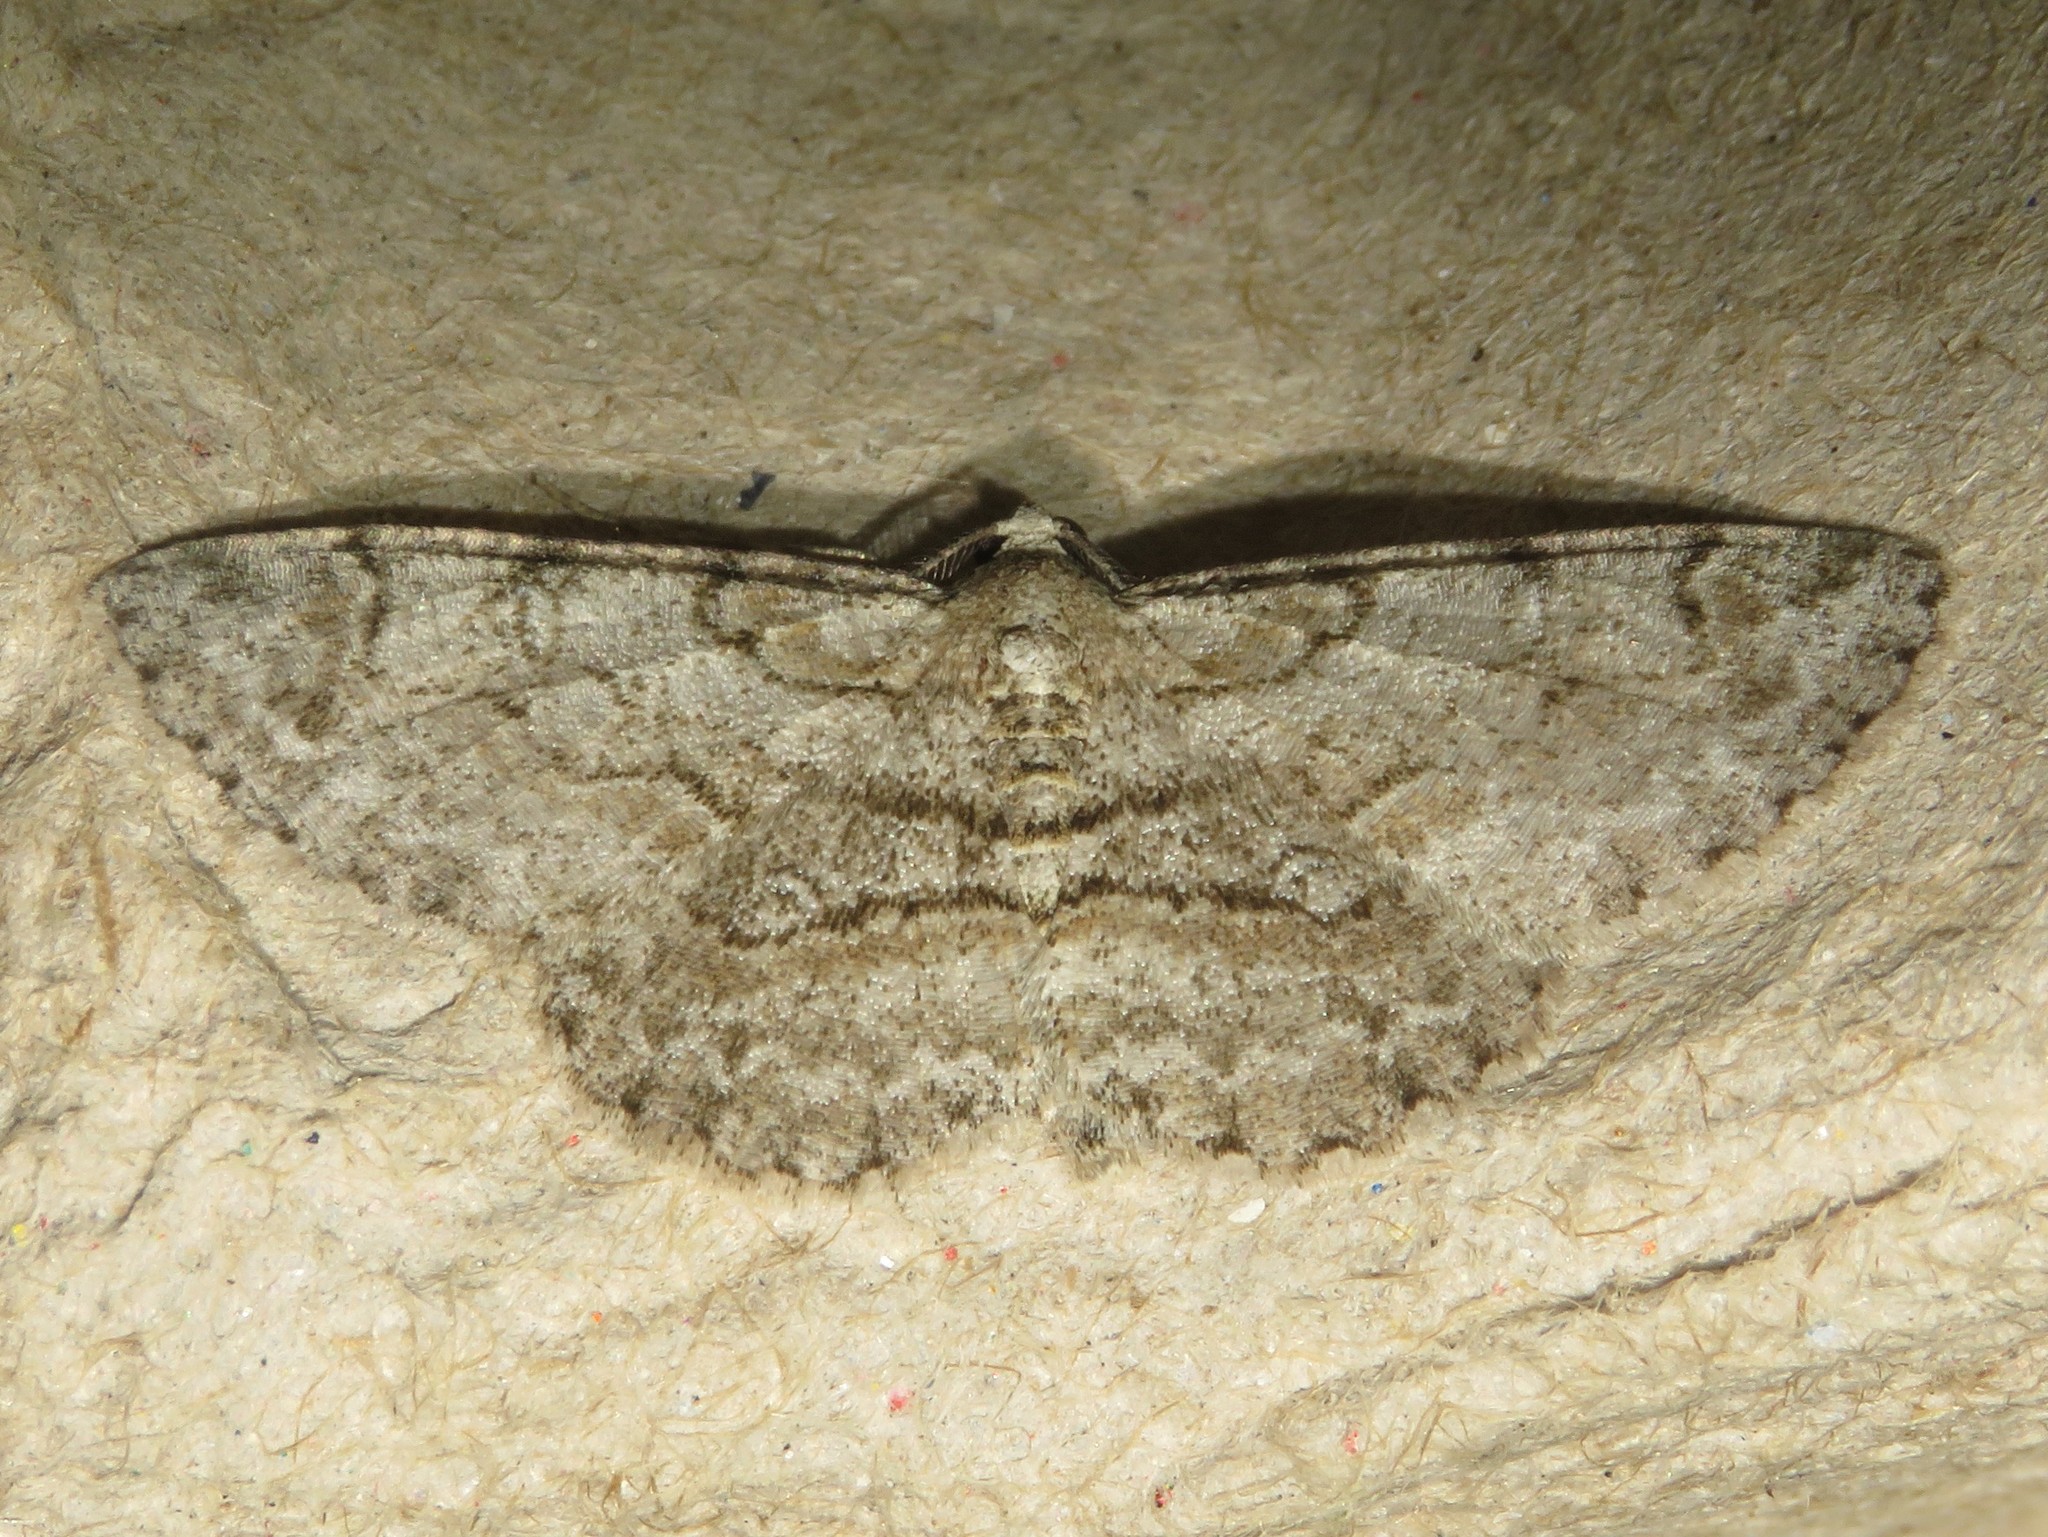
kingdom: Animalia
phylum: Arthropoda
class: Insecta
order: Lepidoptera
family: Geometridae
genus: Iridopsis
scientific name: Iridopsis ephyraria
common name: Pale-winged gray
